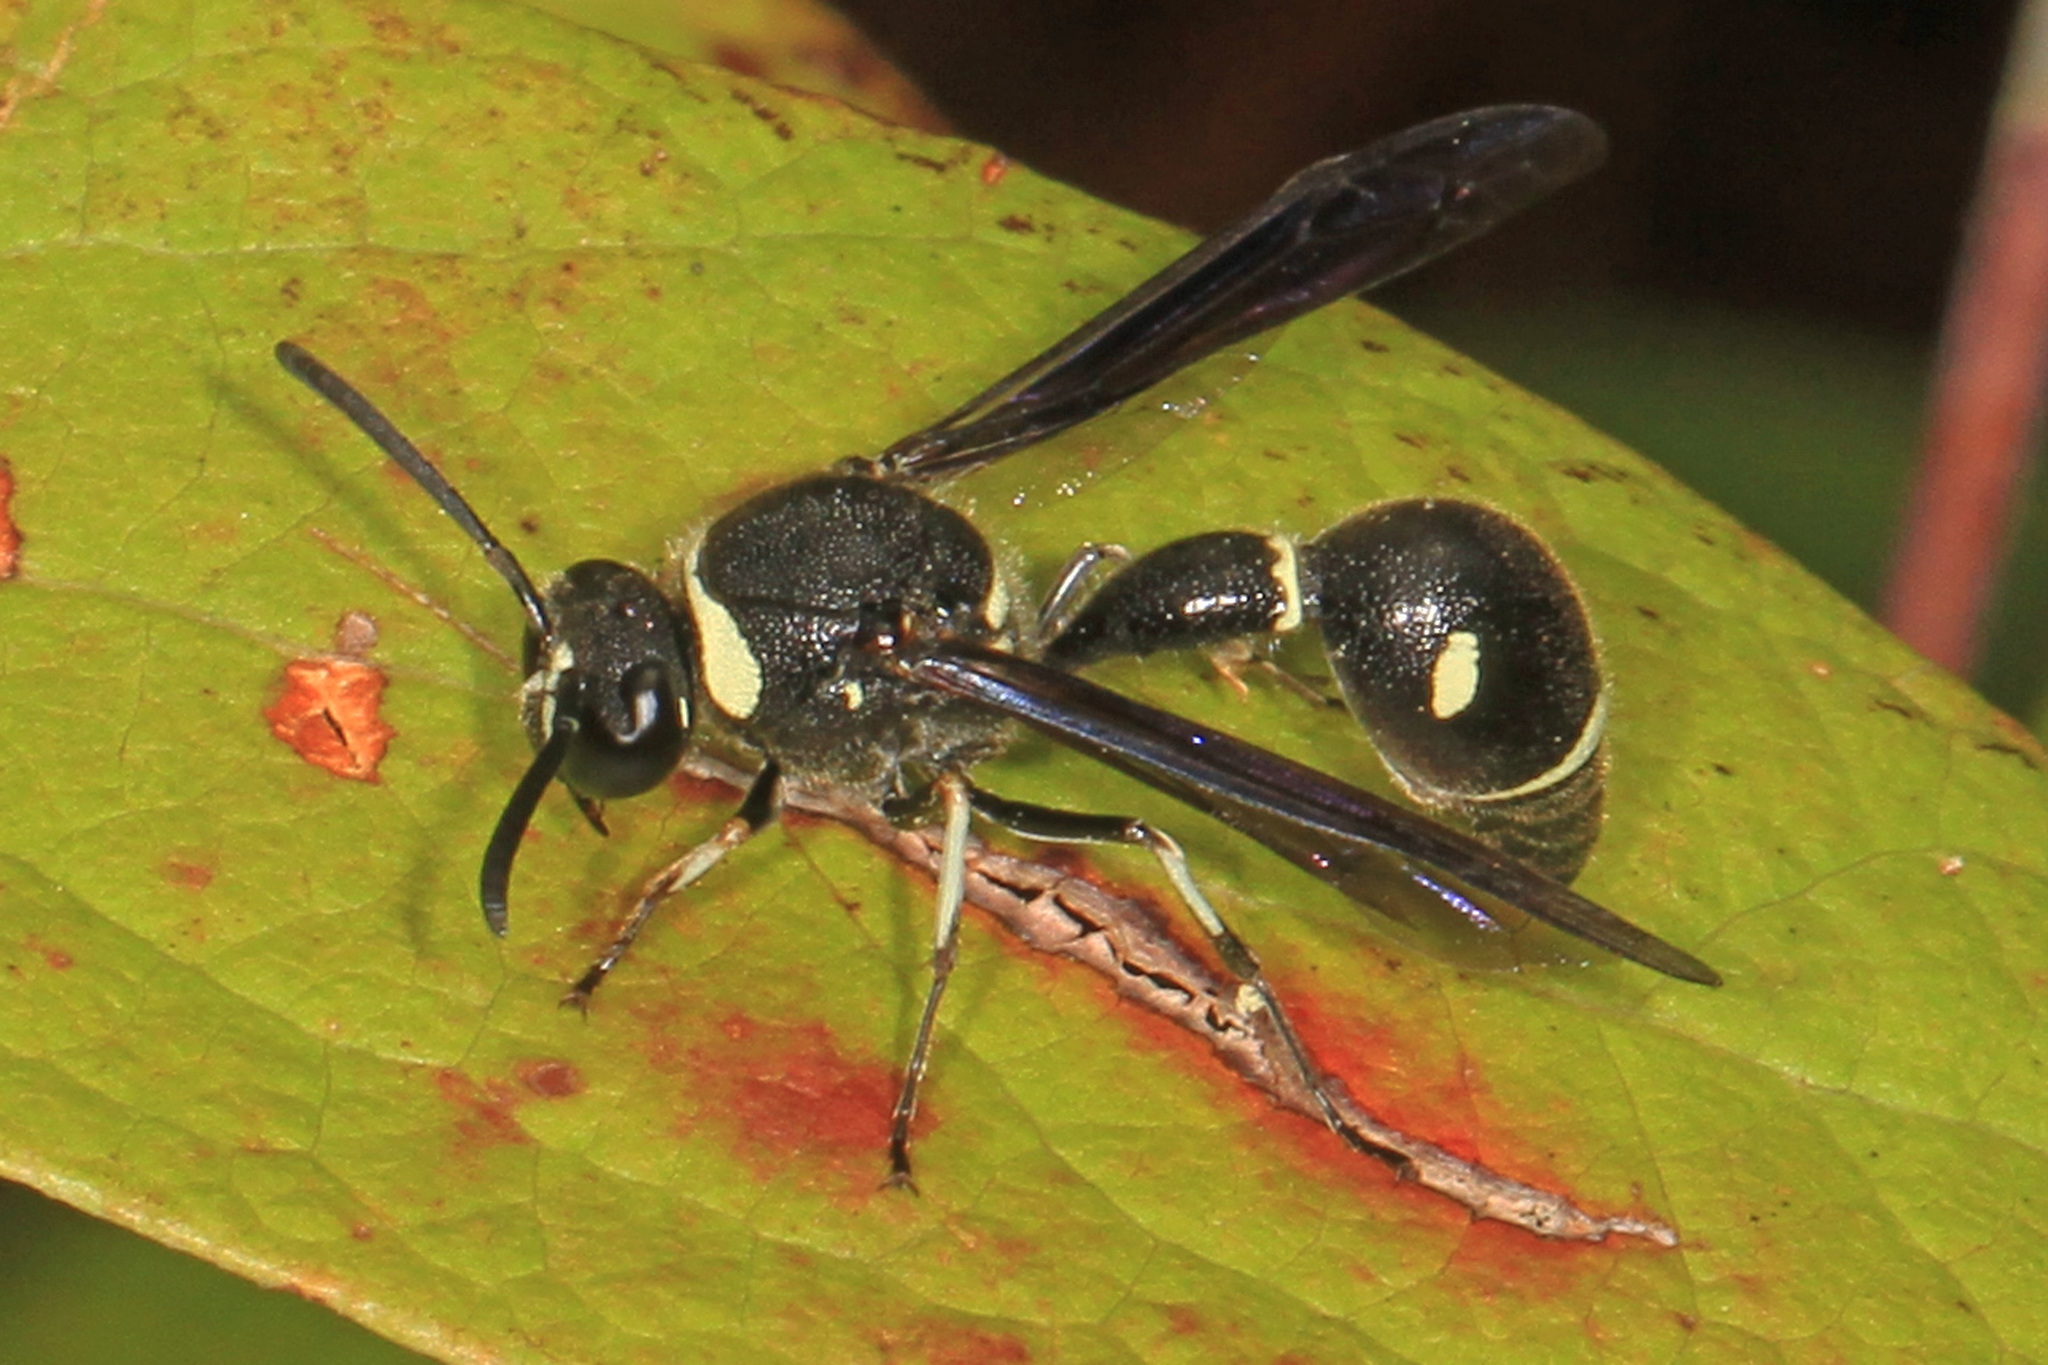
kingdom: Animalia
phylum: Arthropoda
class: Insecta
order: Hymenoptera
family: Vespidae
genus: Eumenes
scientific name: Eumenes fraternus
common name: Fraternal potter wasp
